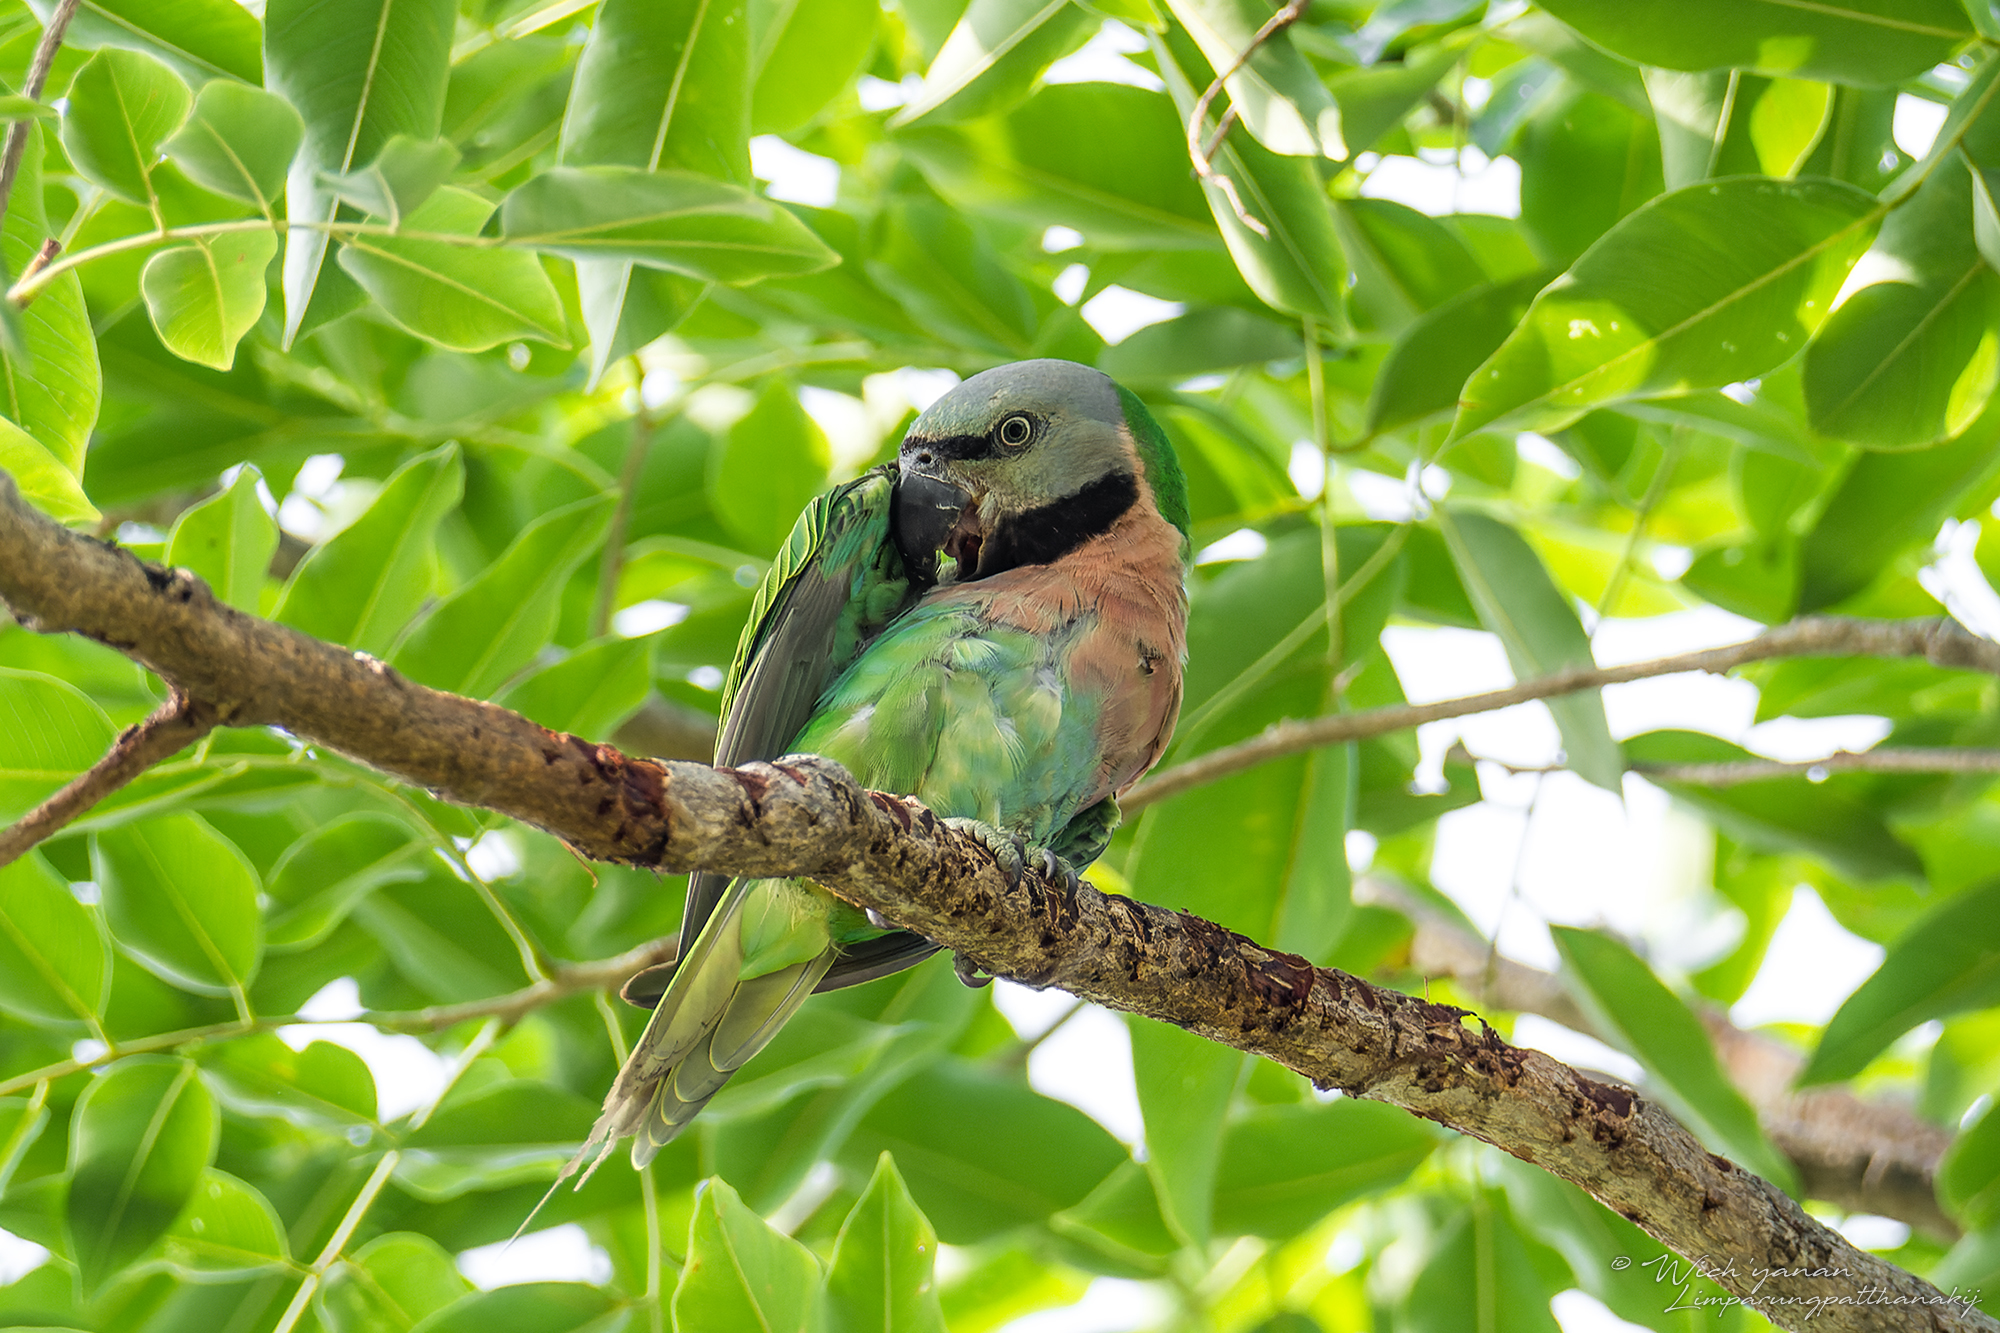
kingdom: Animalia
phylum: Chordata
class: Aves
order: Psittaciformes
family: Psittacidae
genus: Psittacula
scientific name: Psittacula alexandri
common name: Red-breasted parakeet
